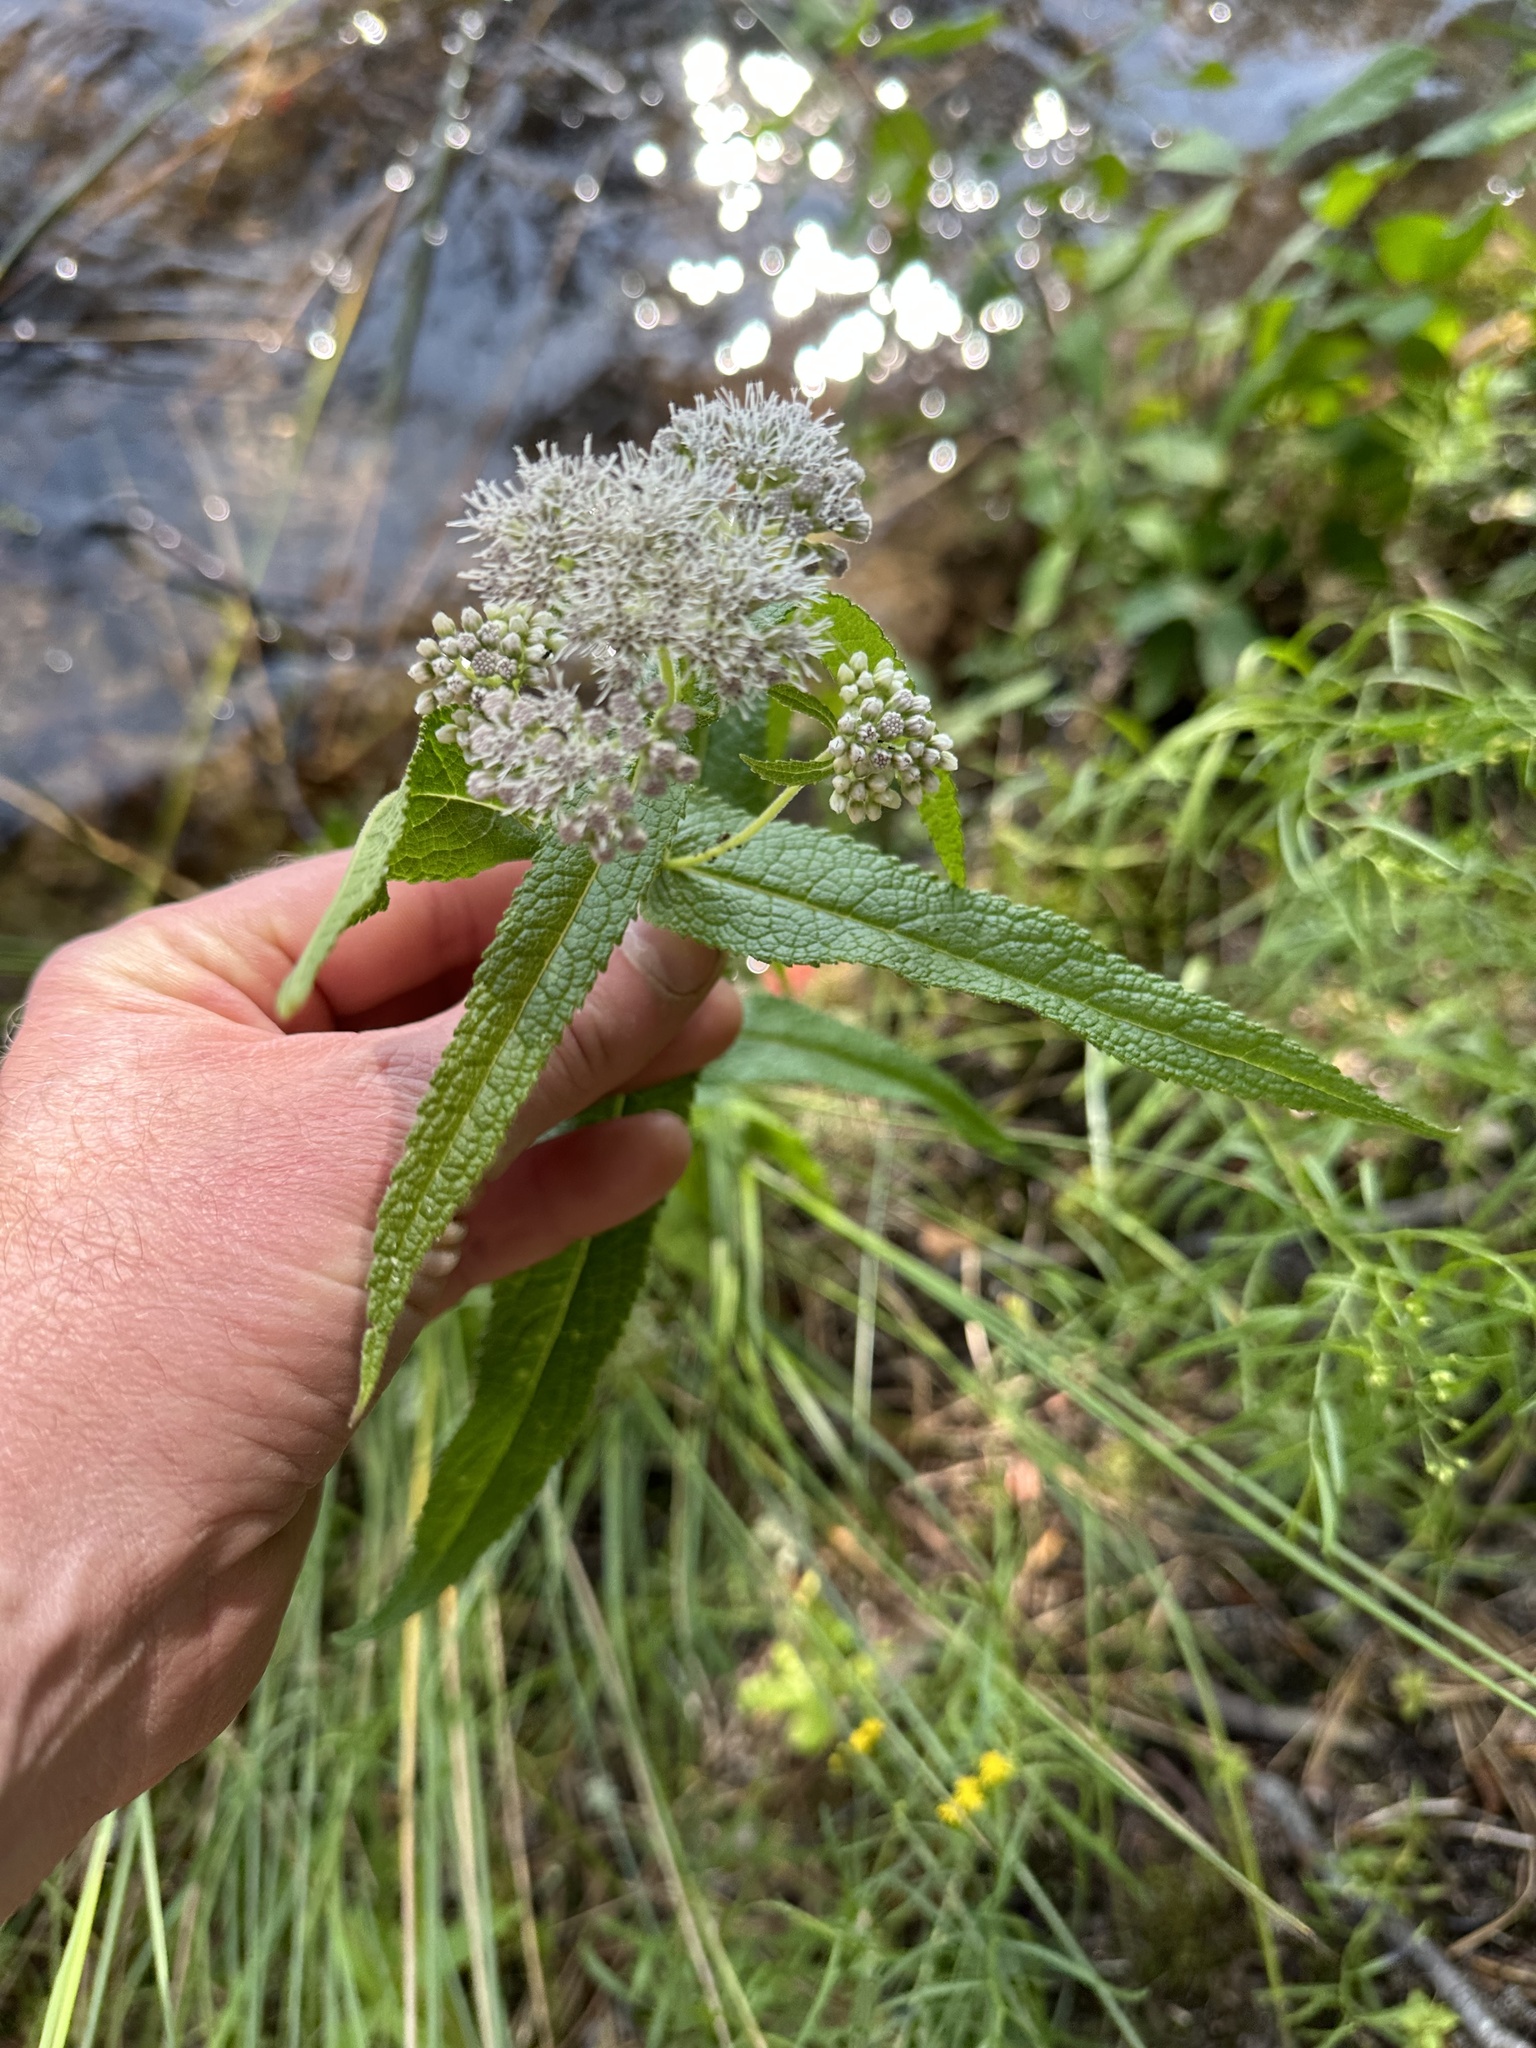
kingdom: Plantae
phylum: Tracheophyta
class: Magnoliopsida
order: Asterales
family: Asteraceae
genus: Eupatorium
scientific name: Eupatorium perfoliatum
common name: Boneset
